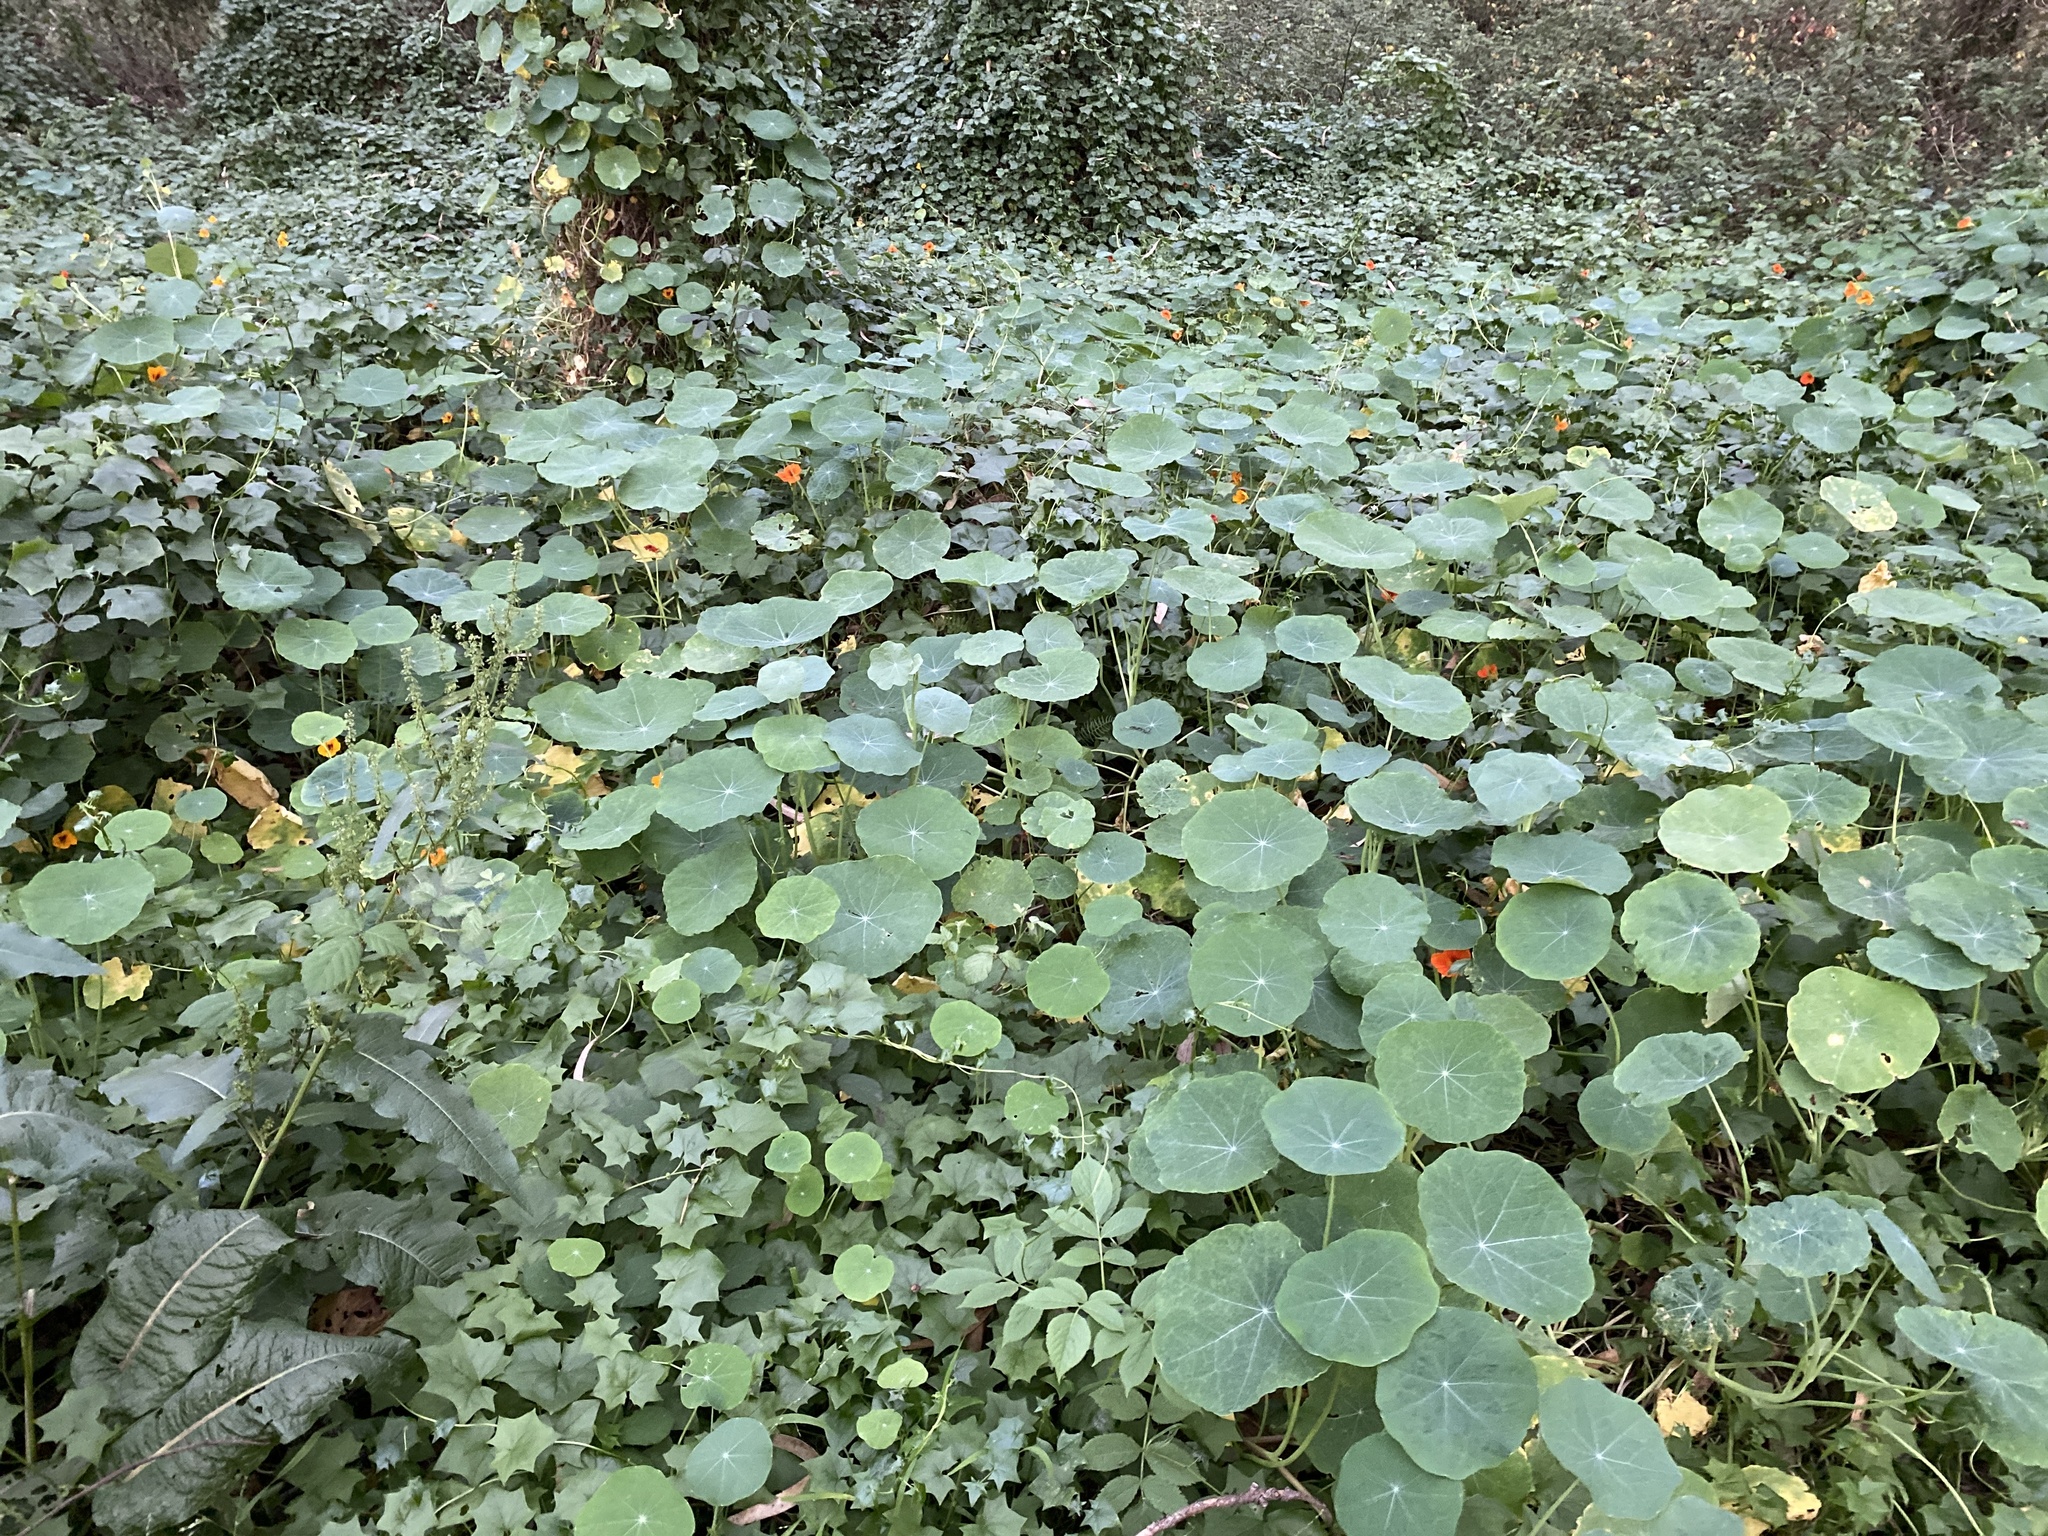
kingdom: Plantae
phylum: Tracheophyta
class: Magnoliopsida
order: Brassicales
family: Tropaeolaceae
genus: Tropaeolum
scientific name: Tropaeolum majus
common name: Nasturtium
